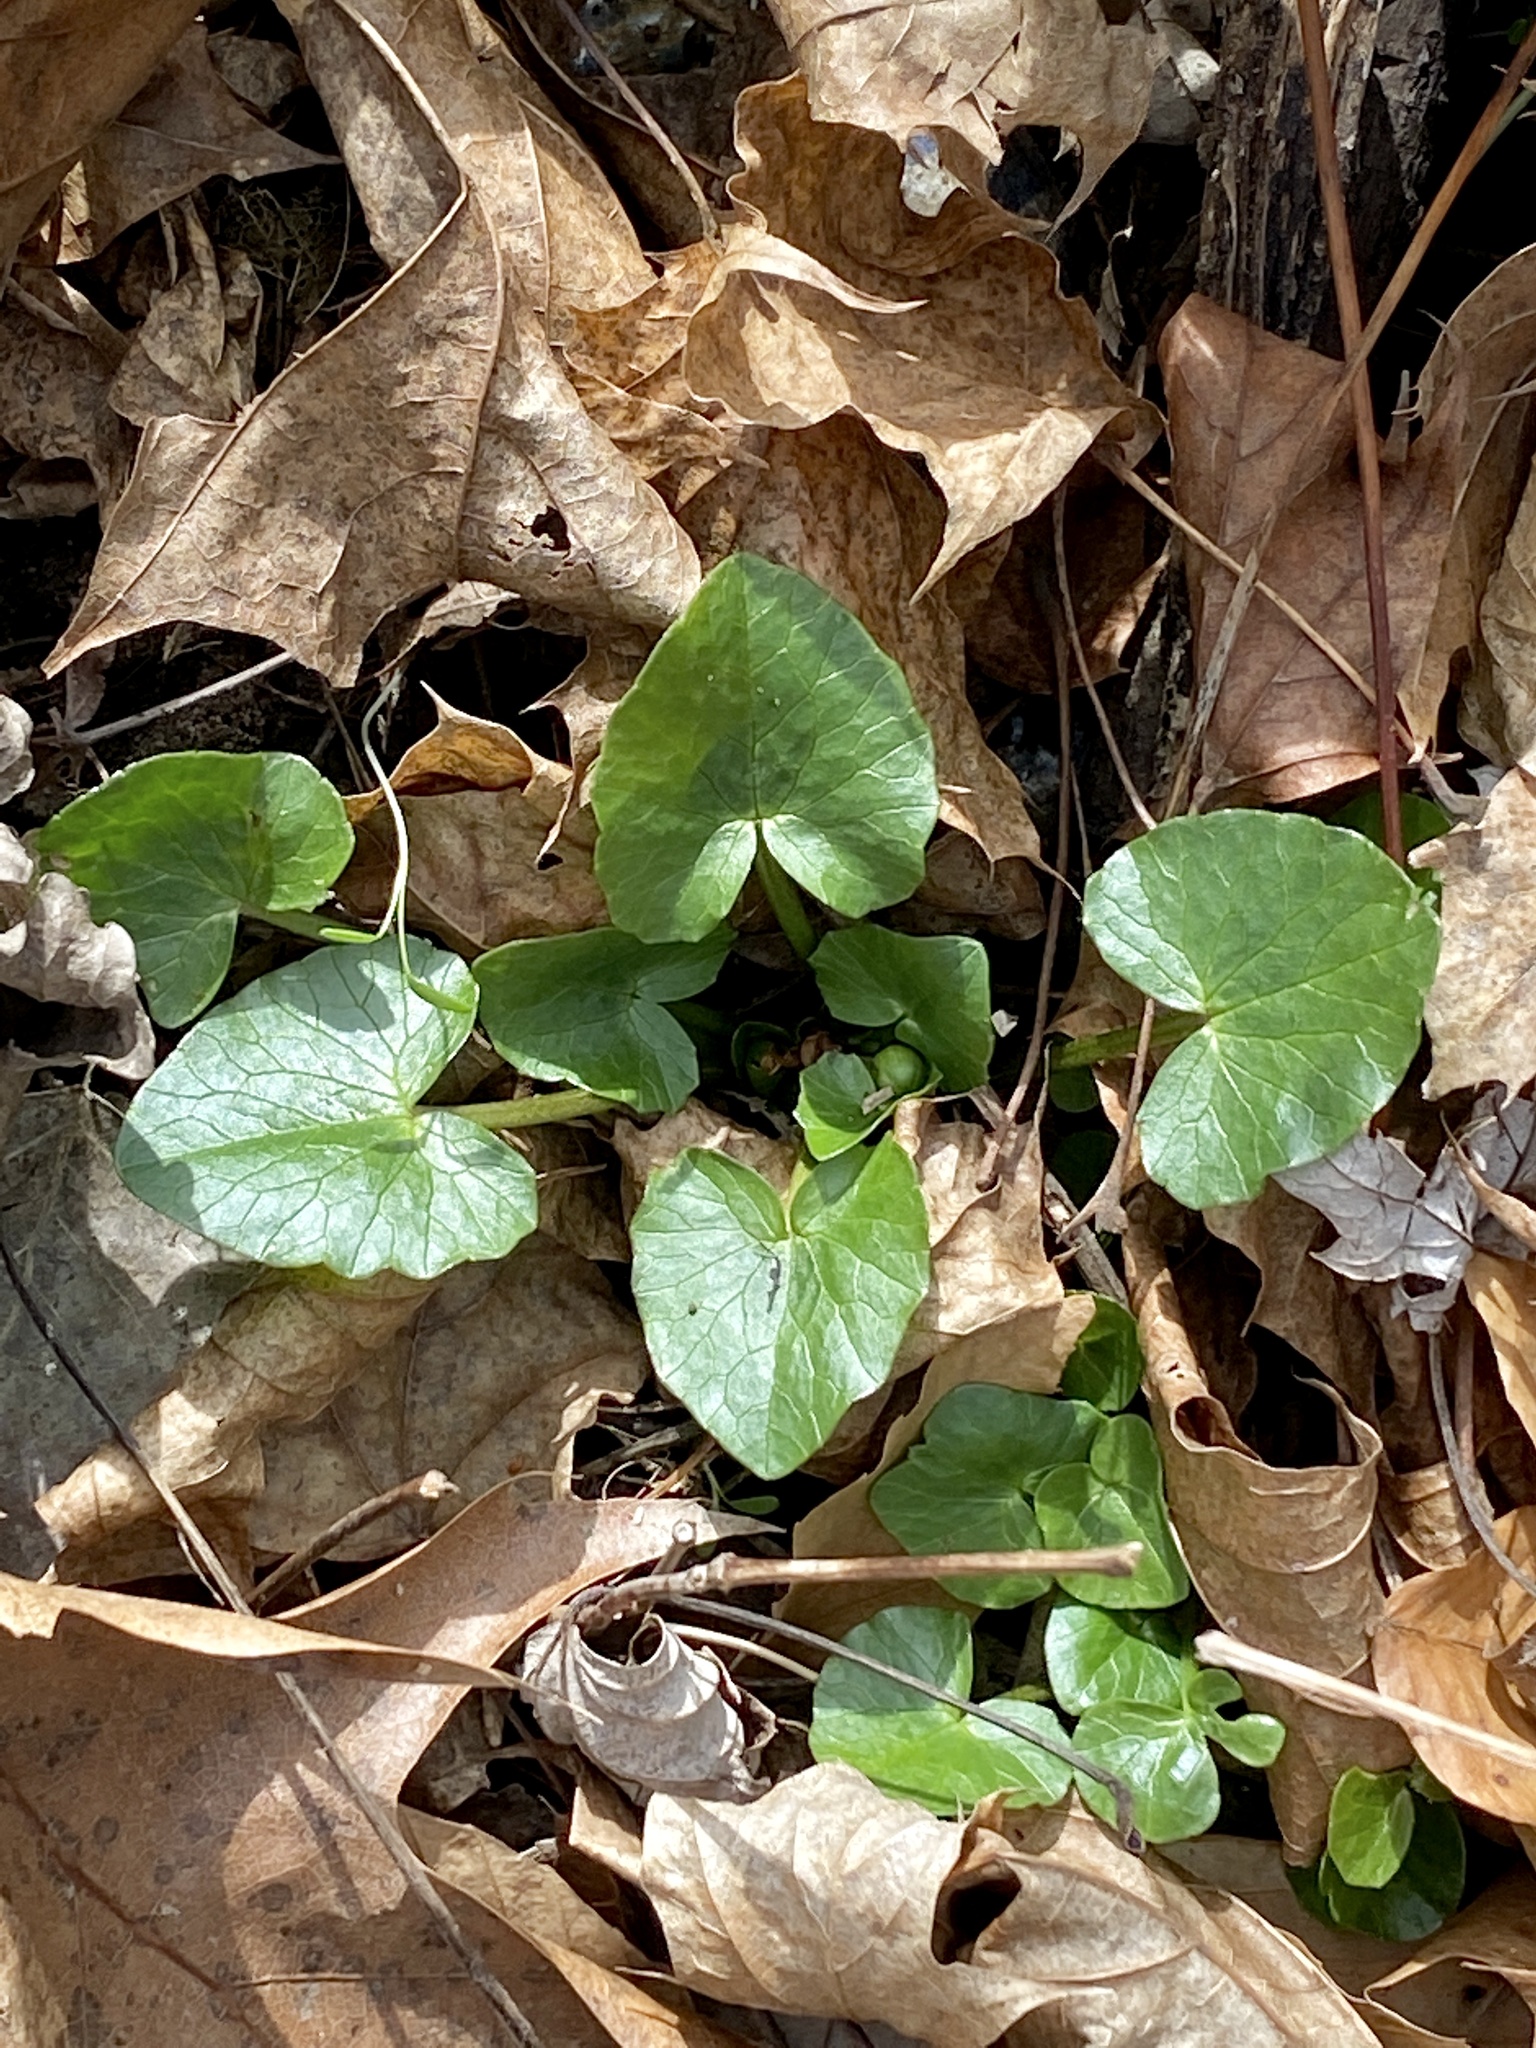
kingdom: Plantae
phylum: Tracheophyta
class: Magnoliopsida
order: Ranunculales
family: Ranunculaceae
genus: Ficaria
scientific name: Ficaria verna
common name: Lesser celandine
